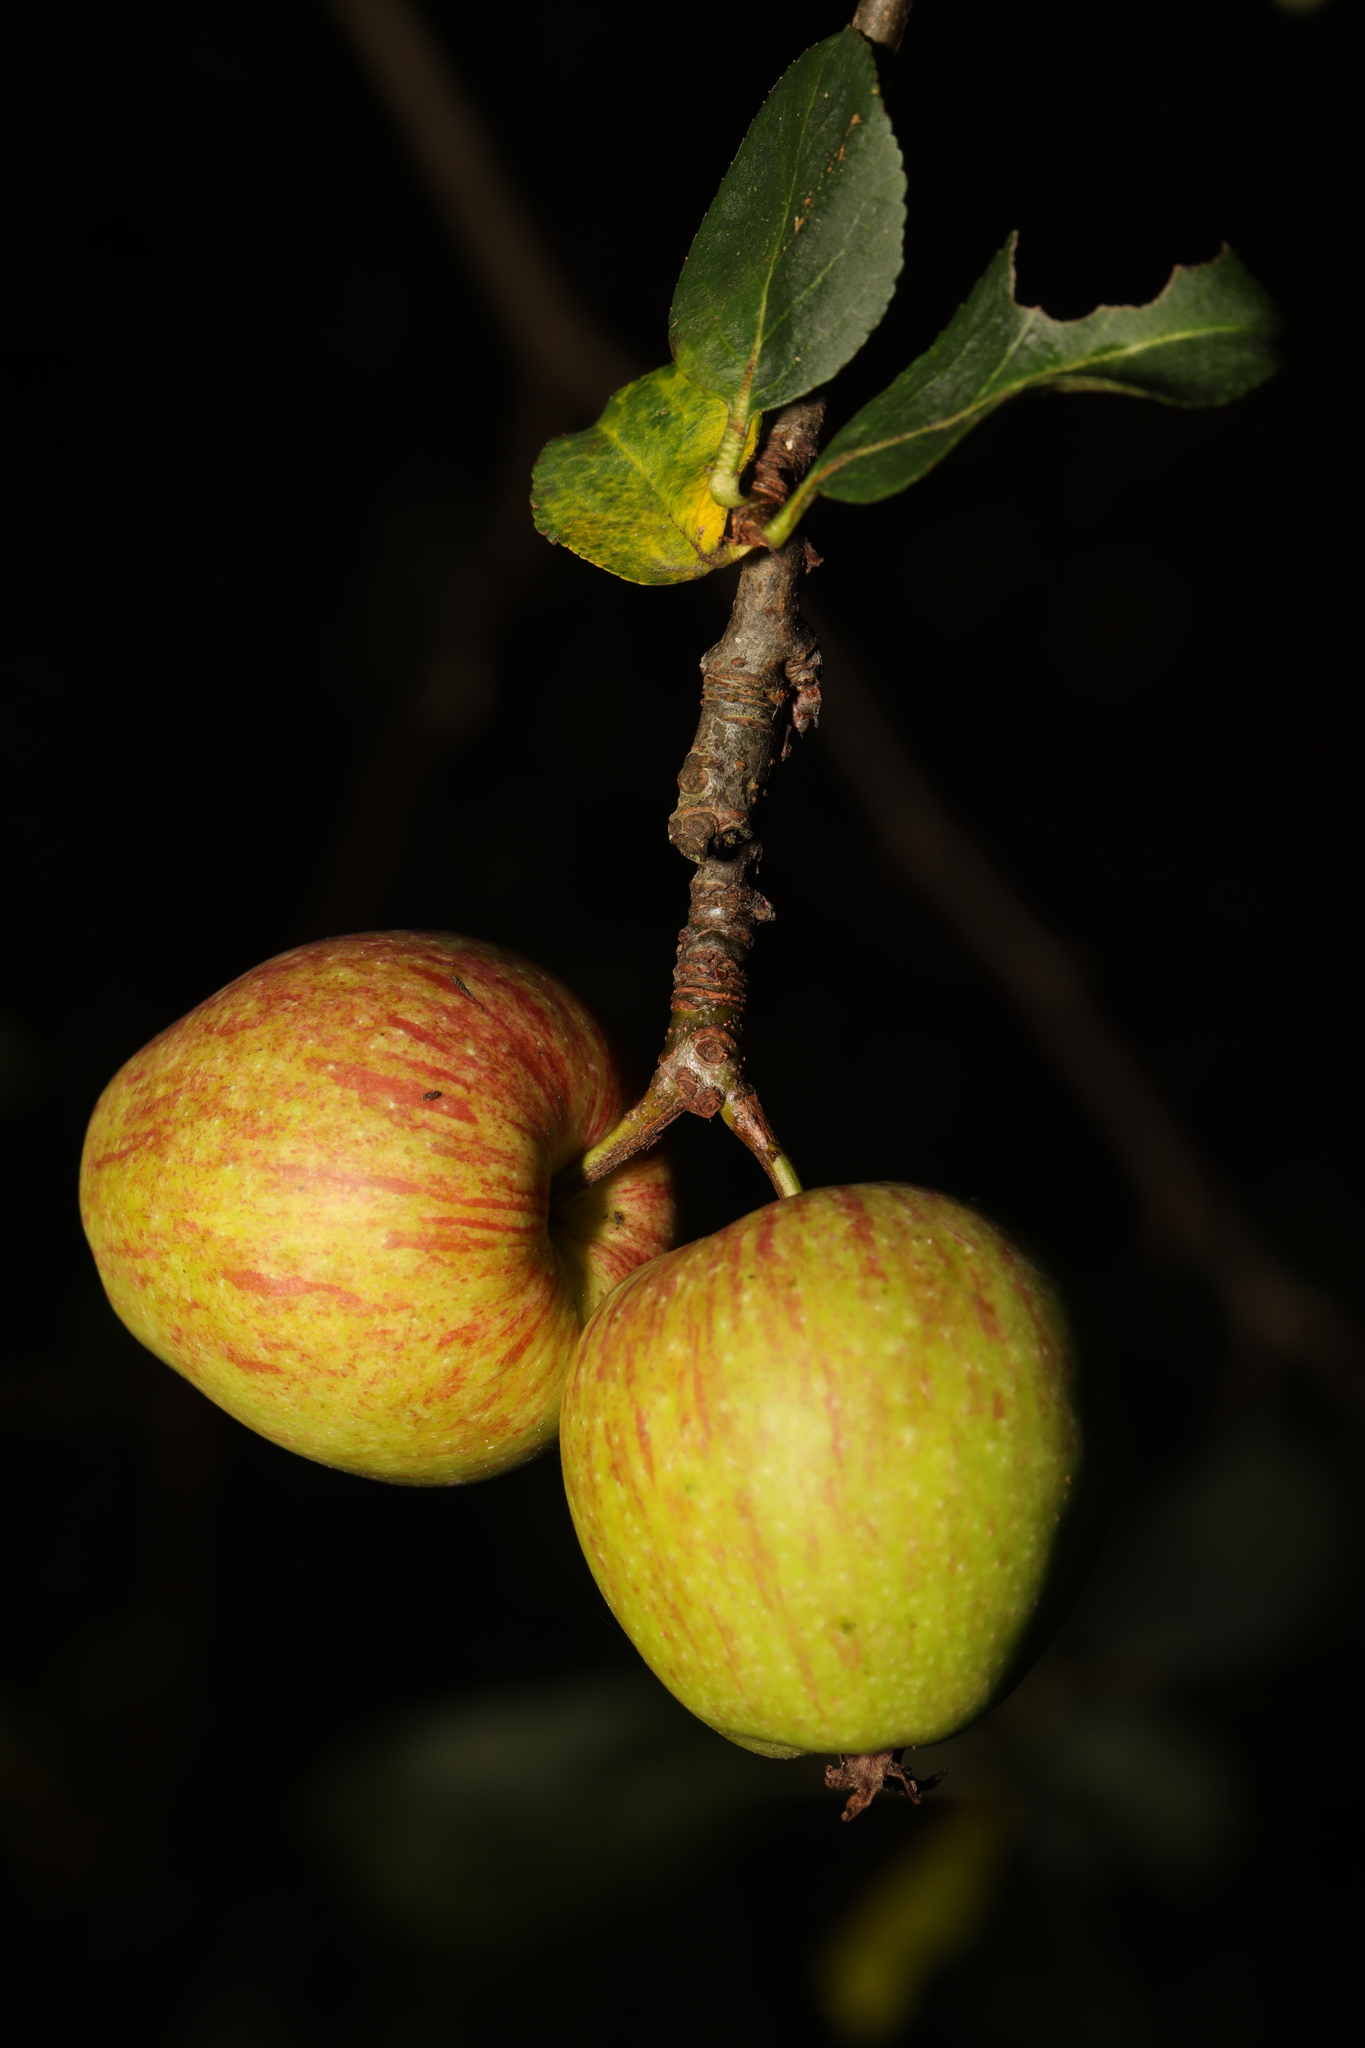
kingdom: Plantae
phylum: Tracheophyta
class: Magnoliopsida
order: Rosales
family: Rosaceae
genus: Malus
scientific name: Malus sylvestris
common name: Crab apple
